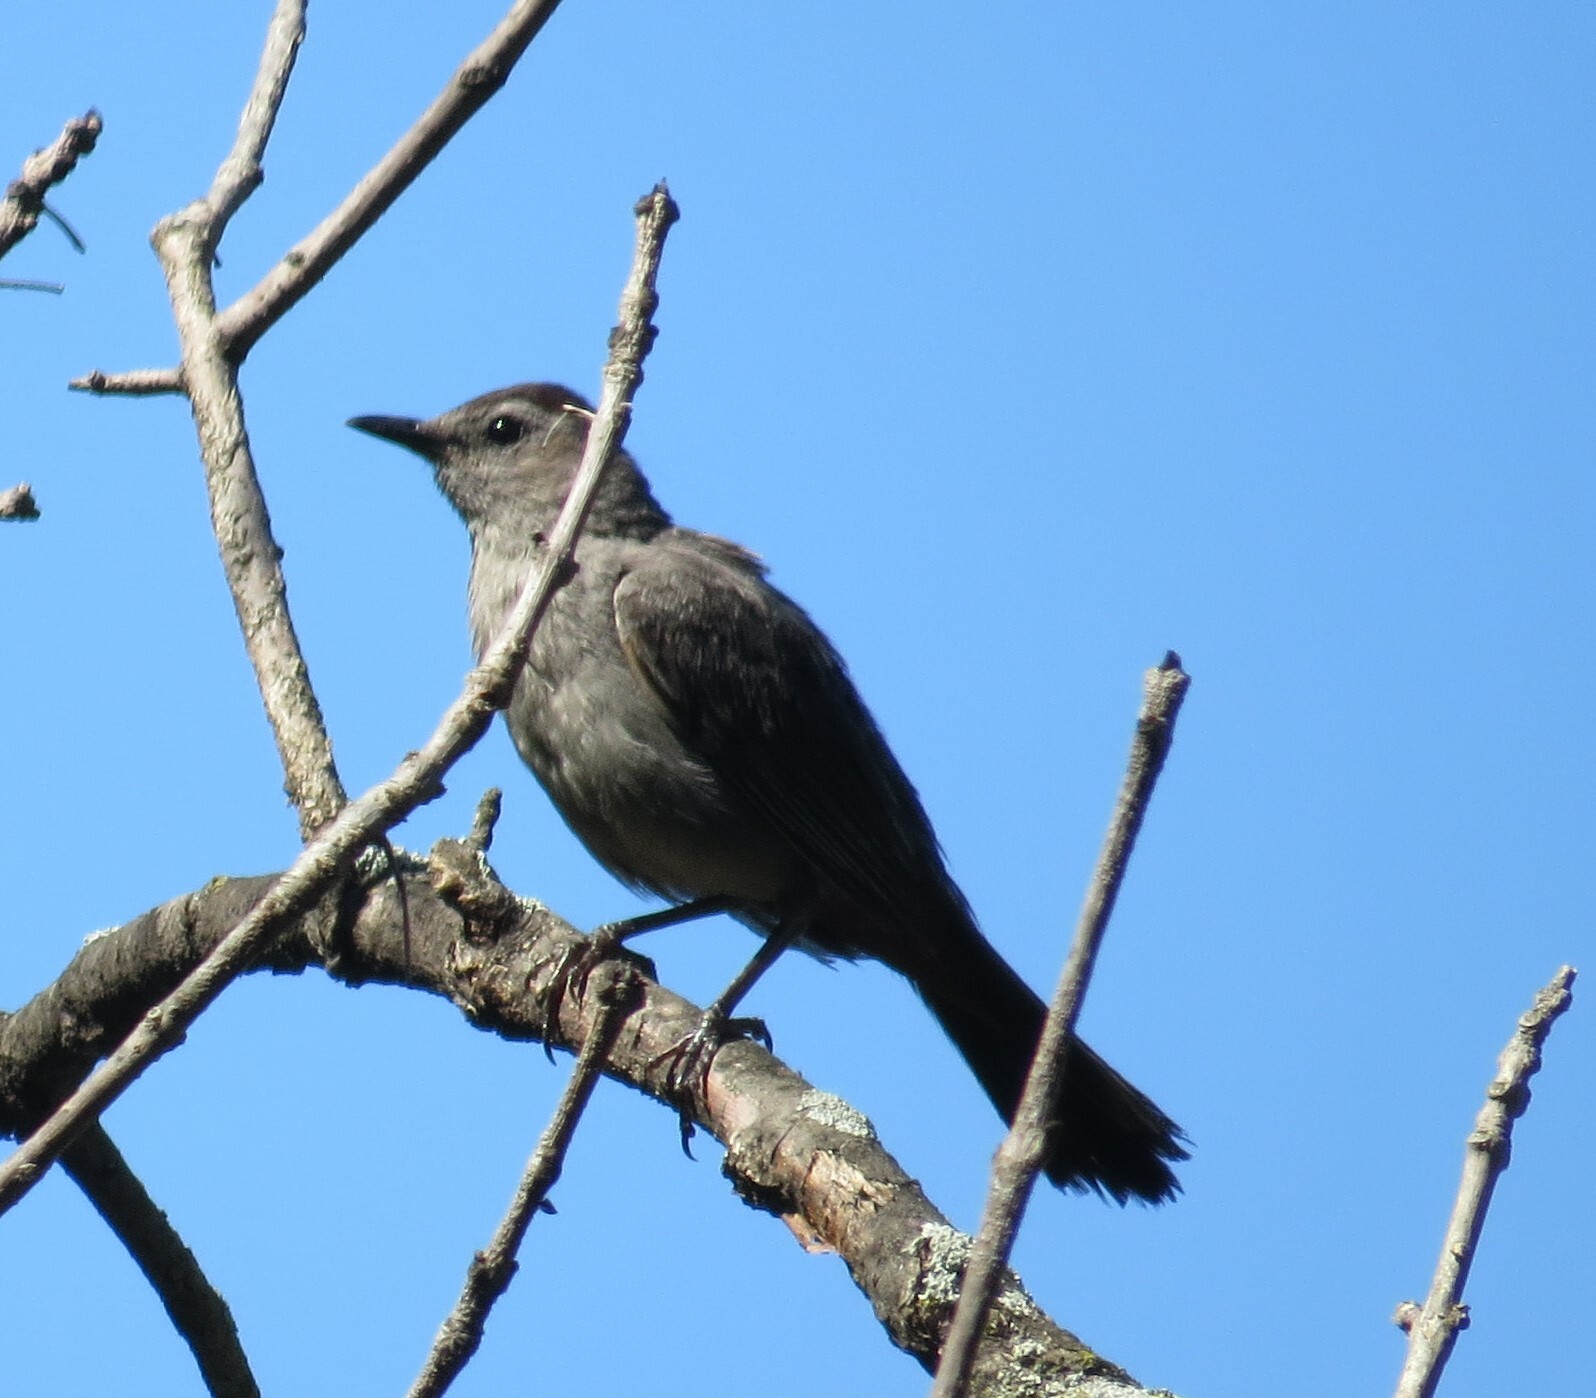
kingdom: Animalia
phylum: Chordata
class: Aves
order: Passeriformes
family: Mimidae
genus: Dumetella
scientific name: Dumetella carolinensis
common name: Gray catbird
